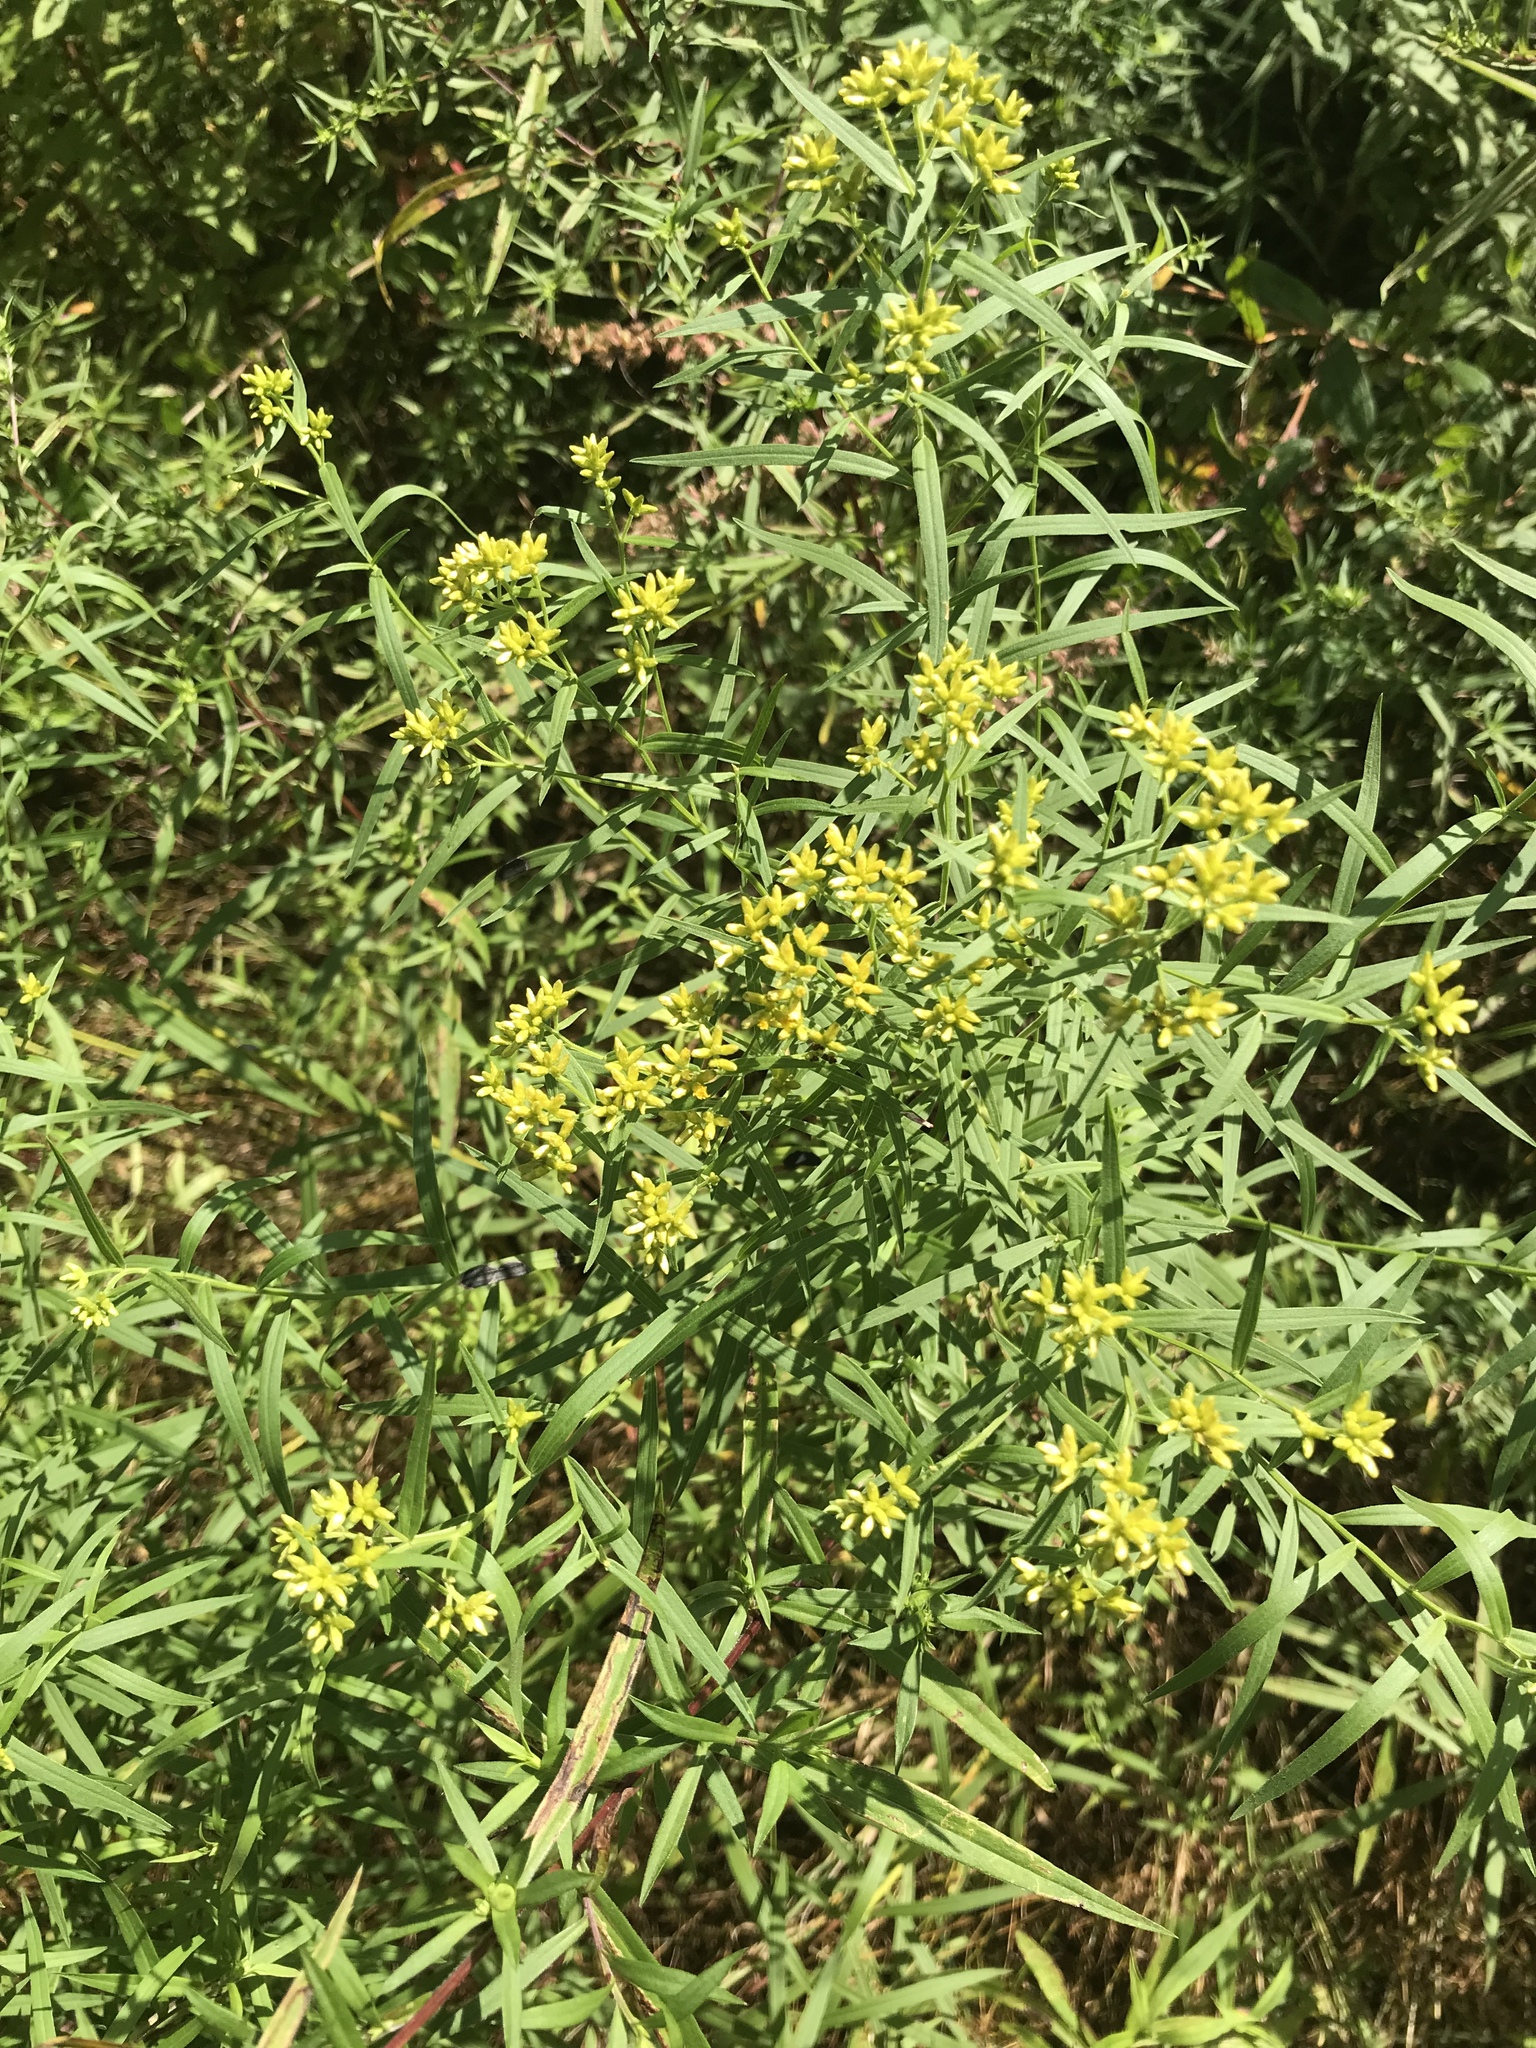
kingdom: Plantae
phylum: Tracheophyta
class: Magnoliopsida
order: Asterales
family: Asteraceae
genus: Euthamia
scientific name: Euthamia graminifolia
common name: Common goldentop
